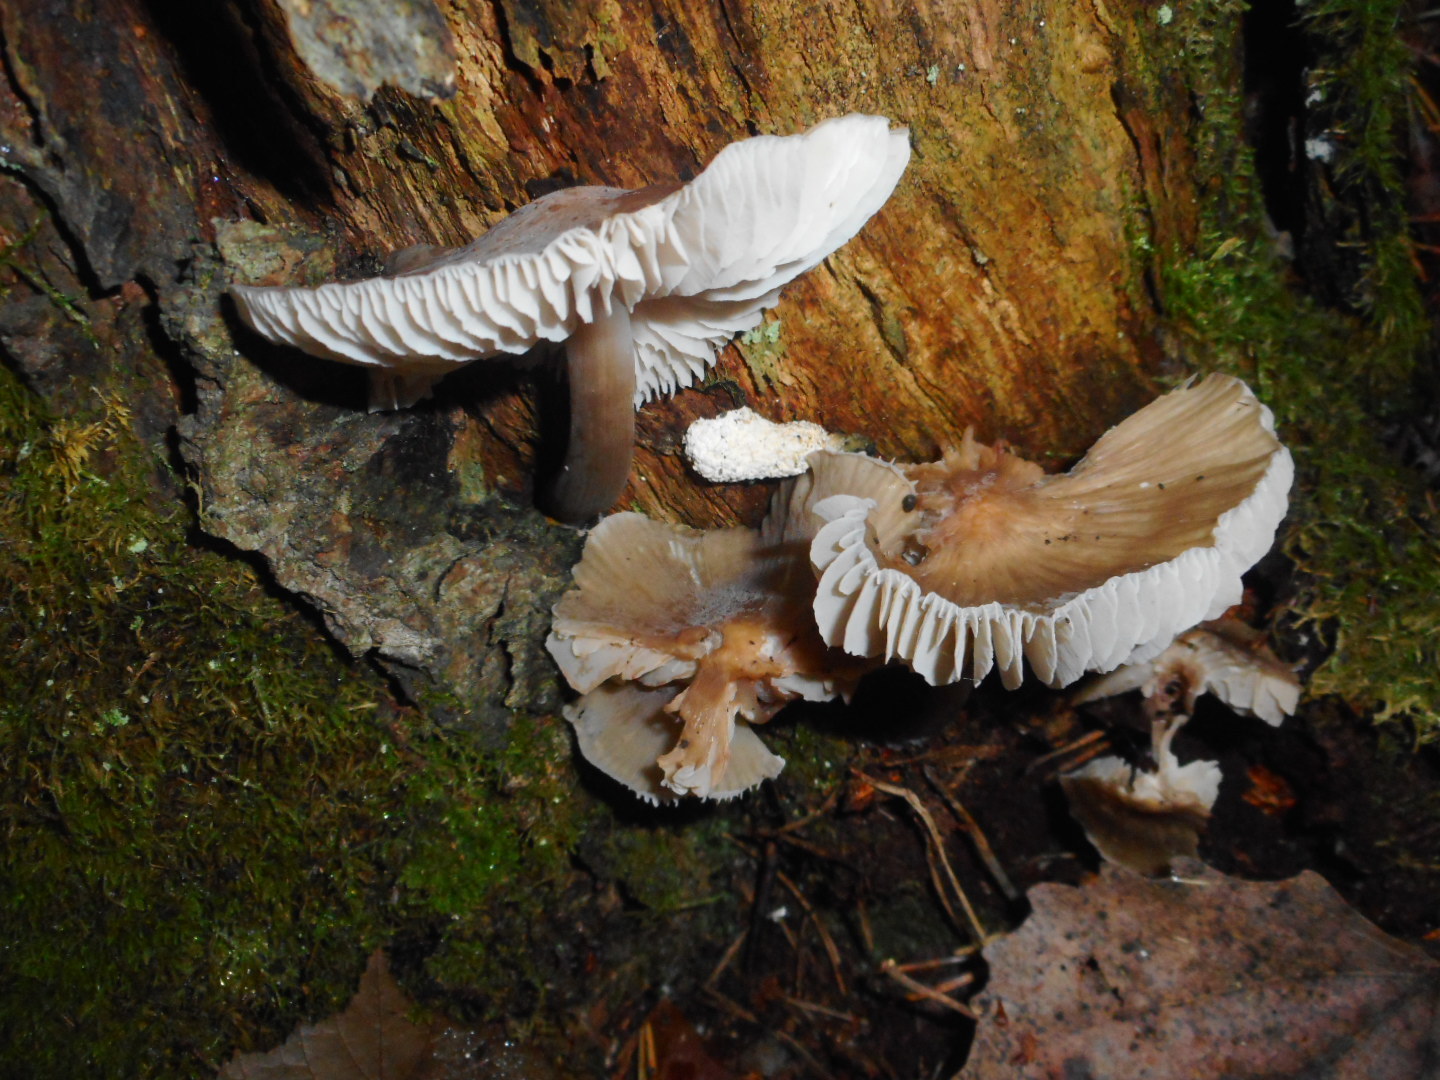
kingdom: Fungi
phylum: Basidiomycota
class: Agaricomycetes
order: Agaricales
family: Mycenaceae
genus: Mycena
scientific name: Mycena galericulata
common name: Bonnet mycena
